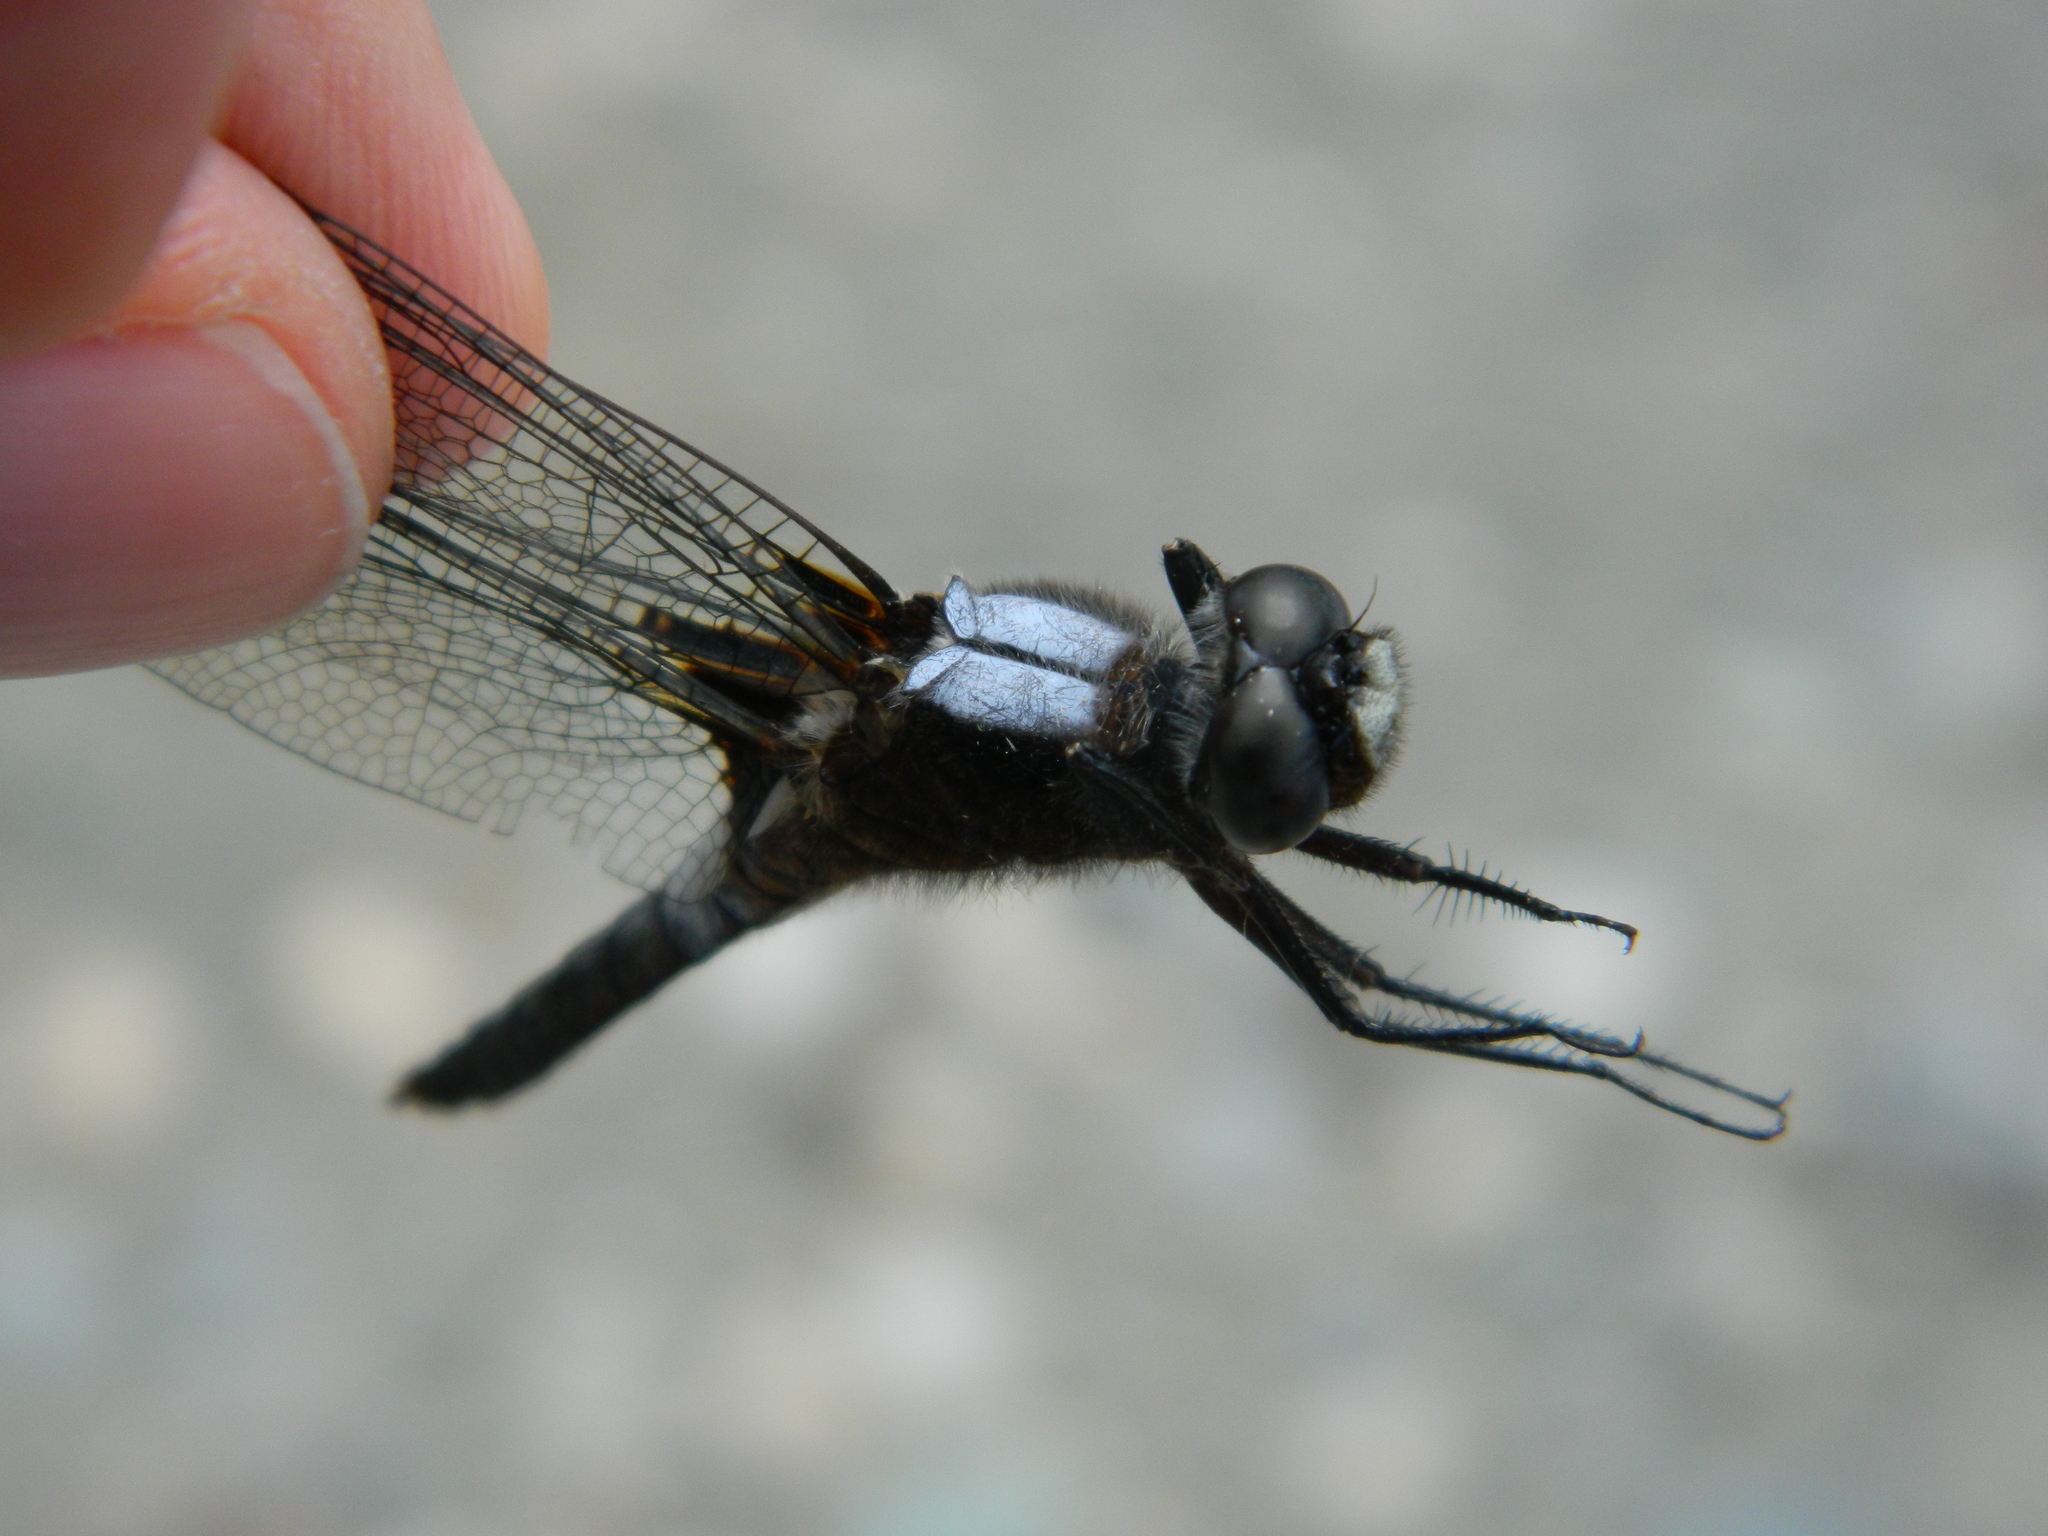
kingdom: Animalia
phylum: Arthropoda
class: Insecta
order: Odonata
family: Libellulidae
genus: Ladona
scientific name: Ladona julia
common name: Chalk-fronted corporal
